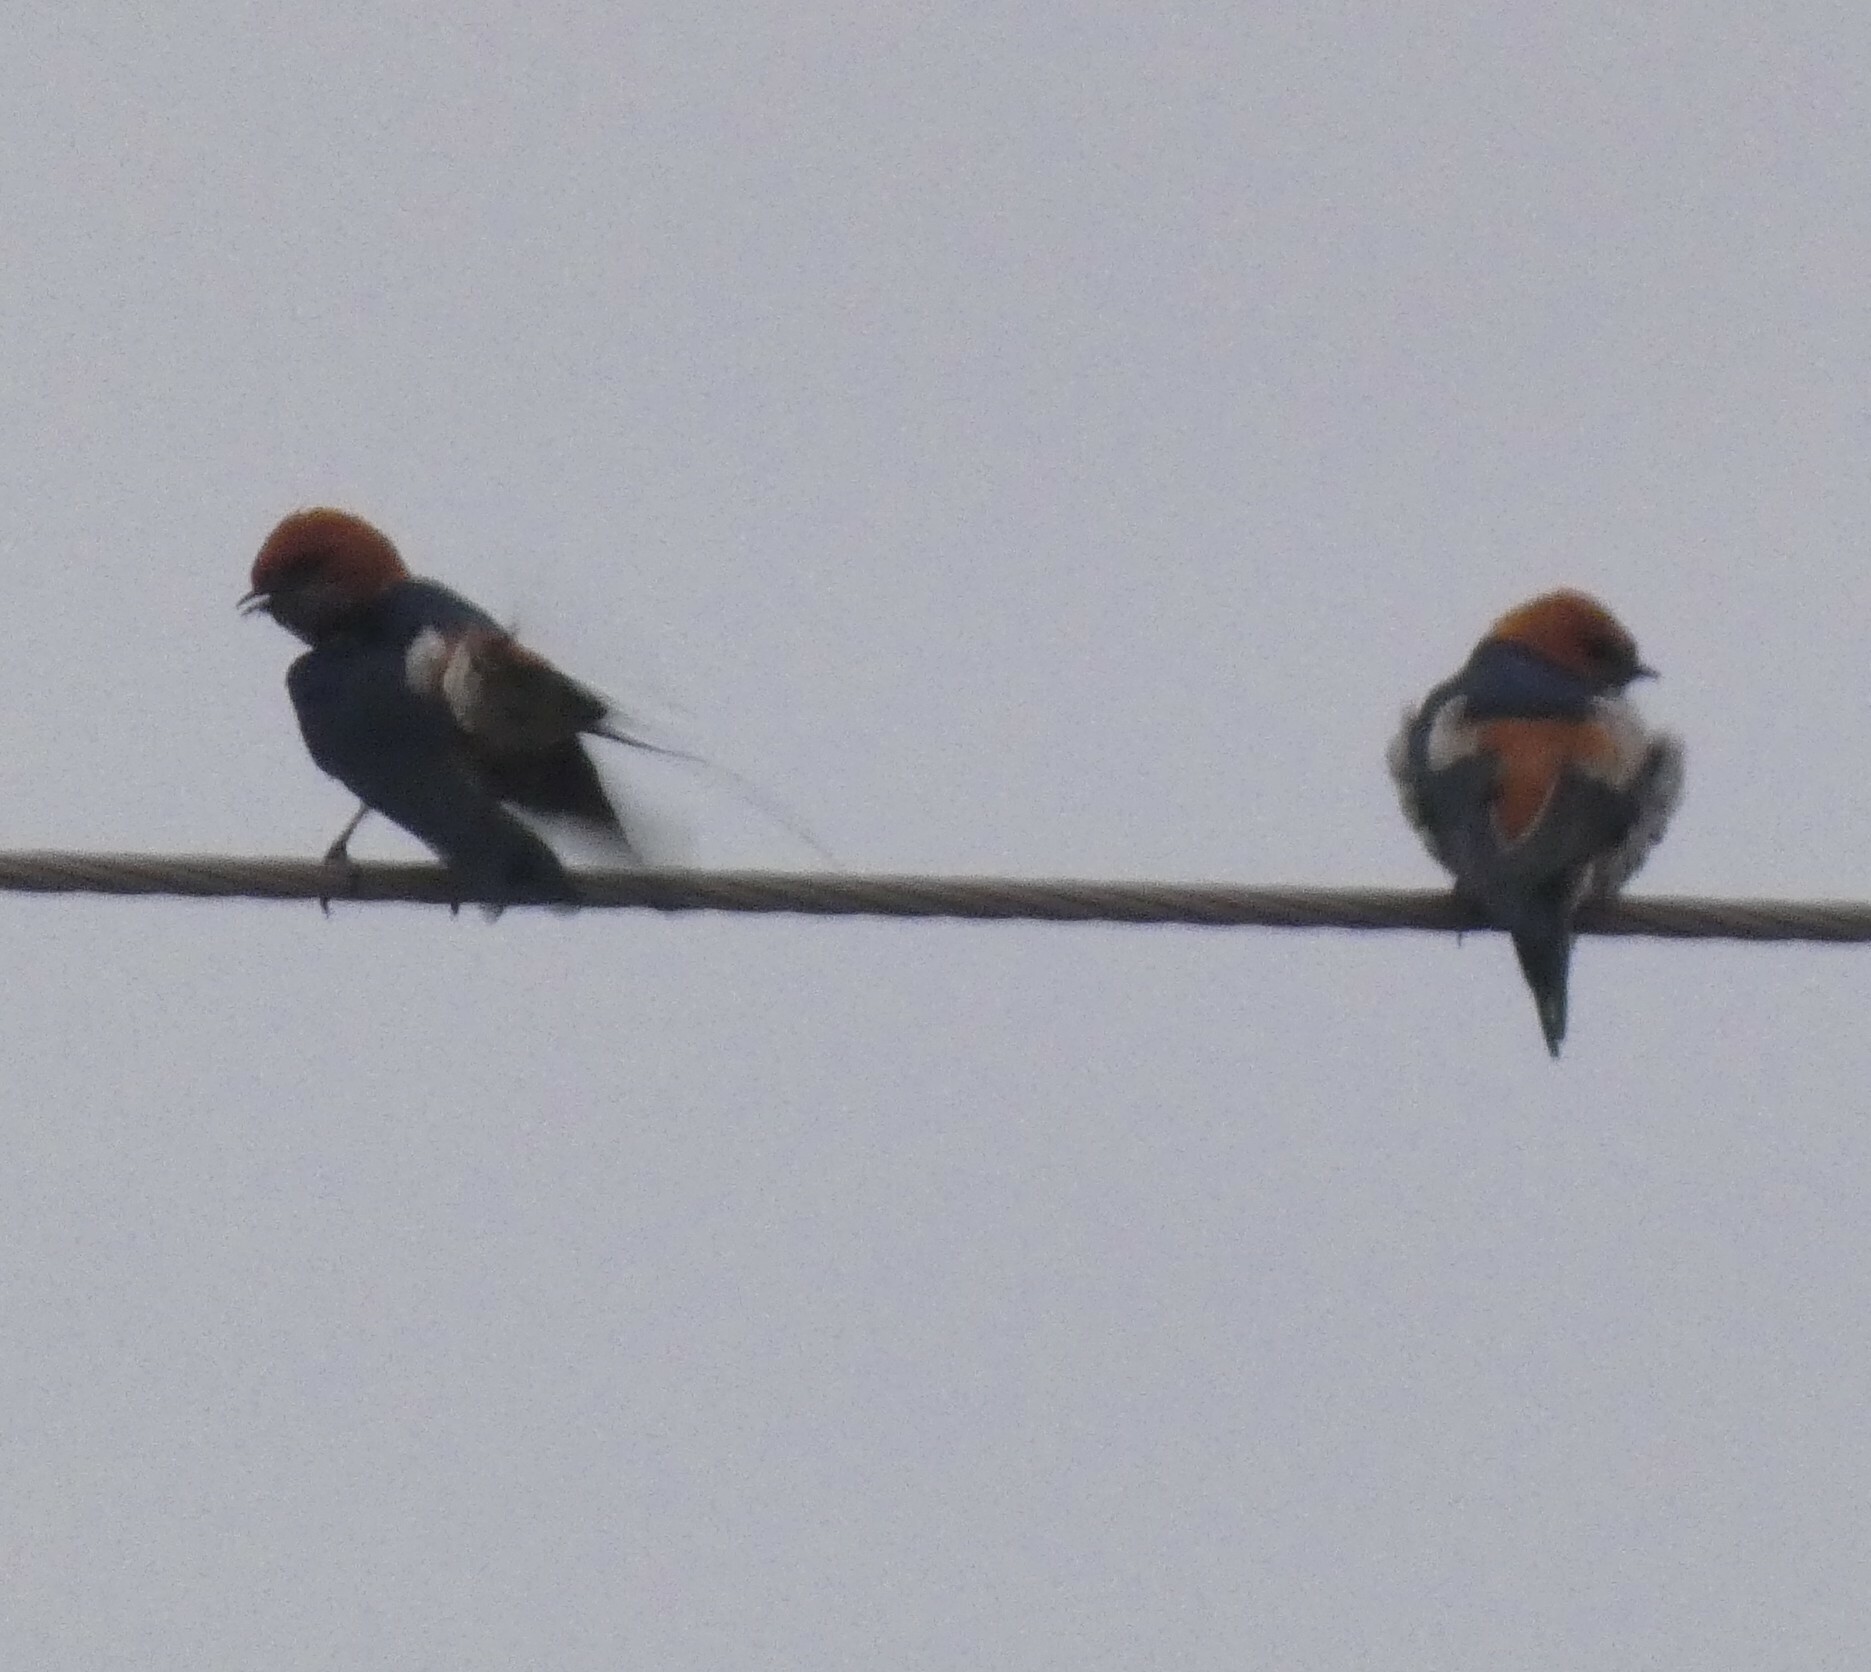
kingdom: Animalia
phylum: Chordata
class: Aves
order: Passeriformes
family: Hirundinidae
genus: Cecropis
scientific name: Cecropis abyssinica
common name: Lesser striped-swallow
